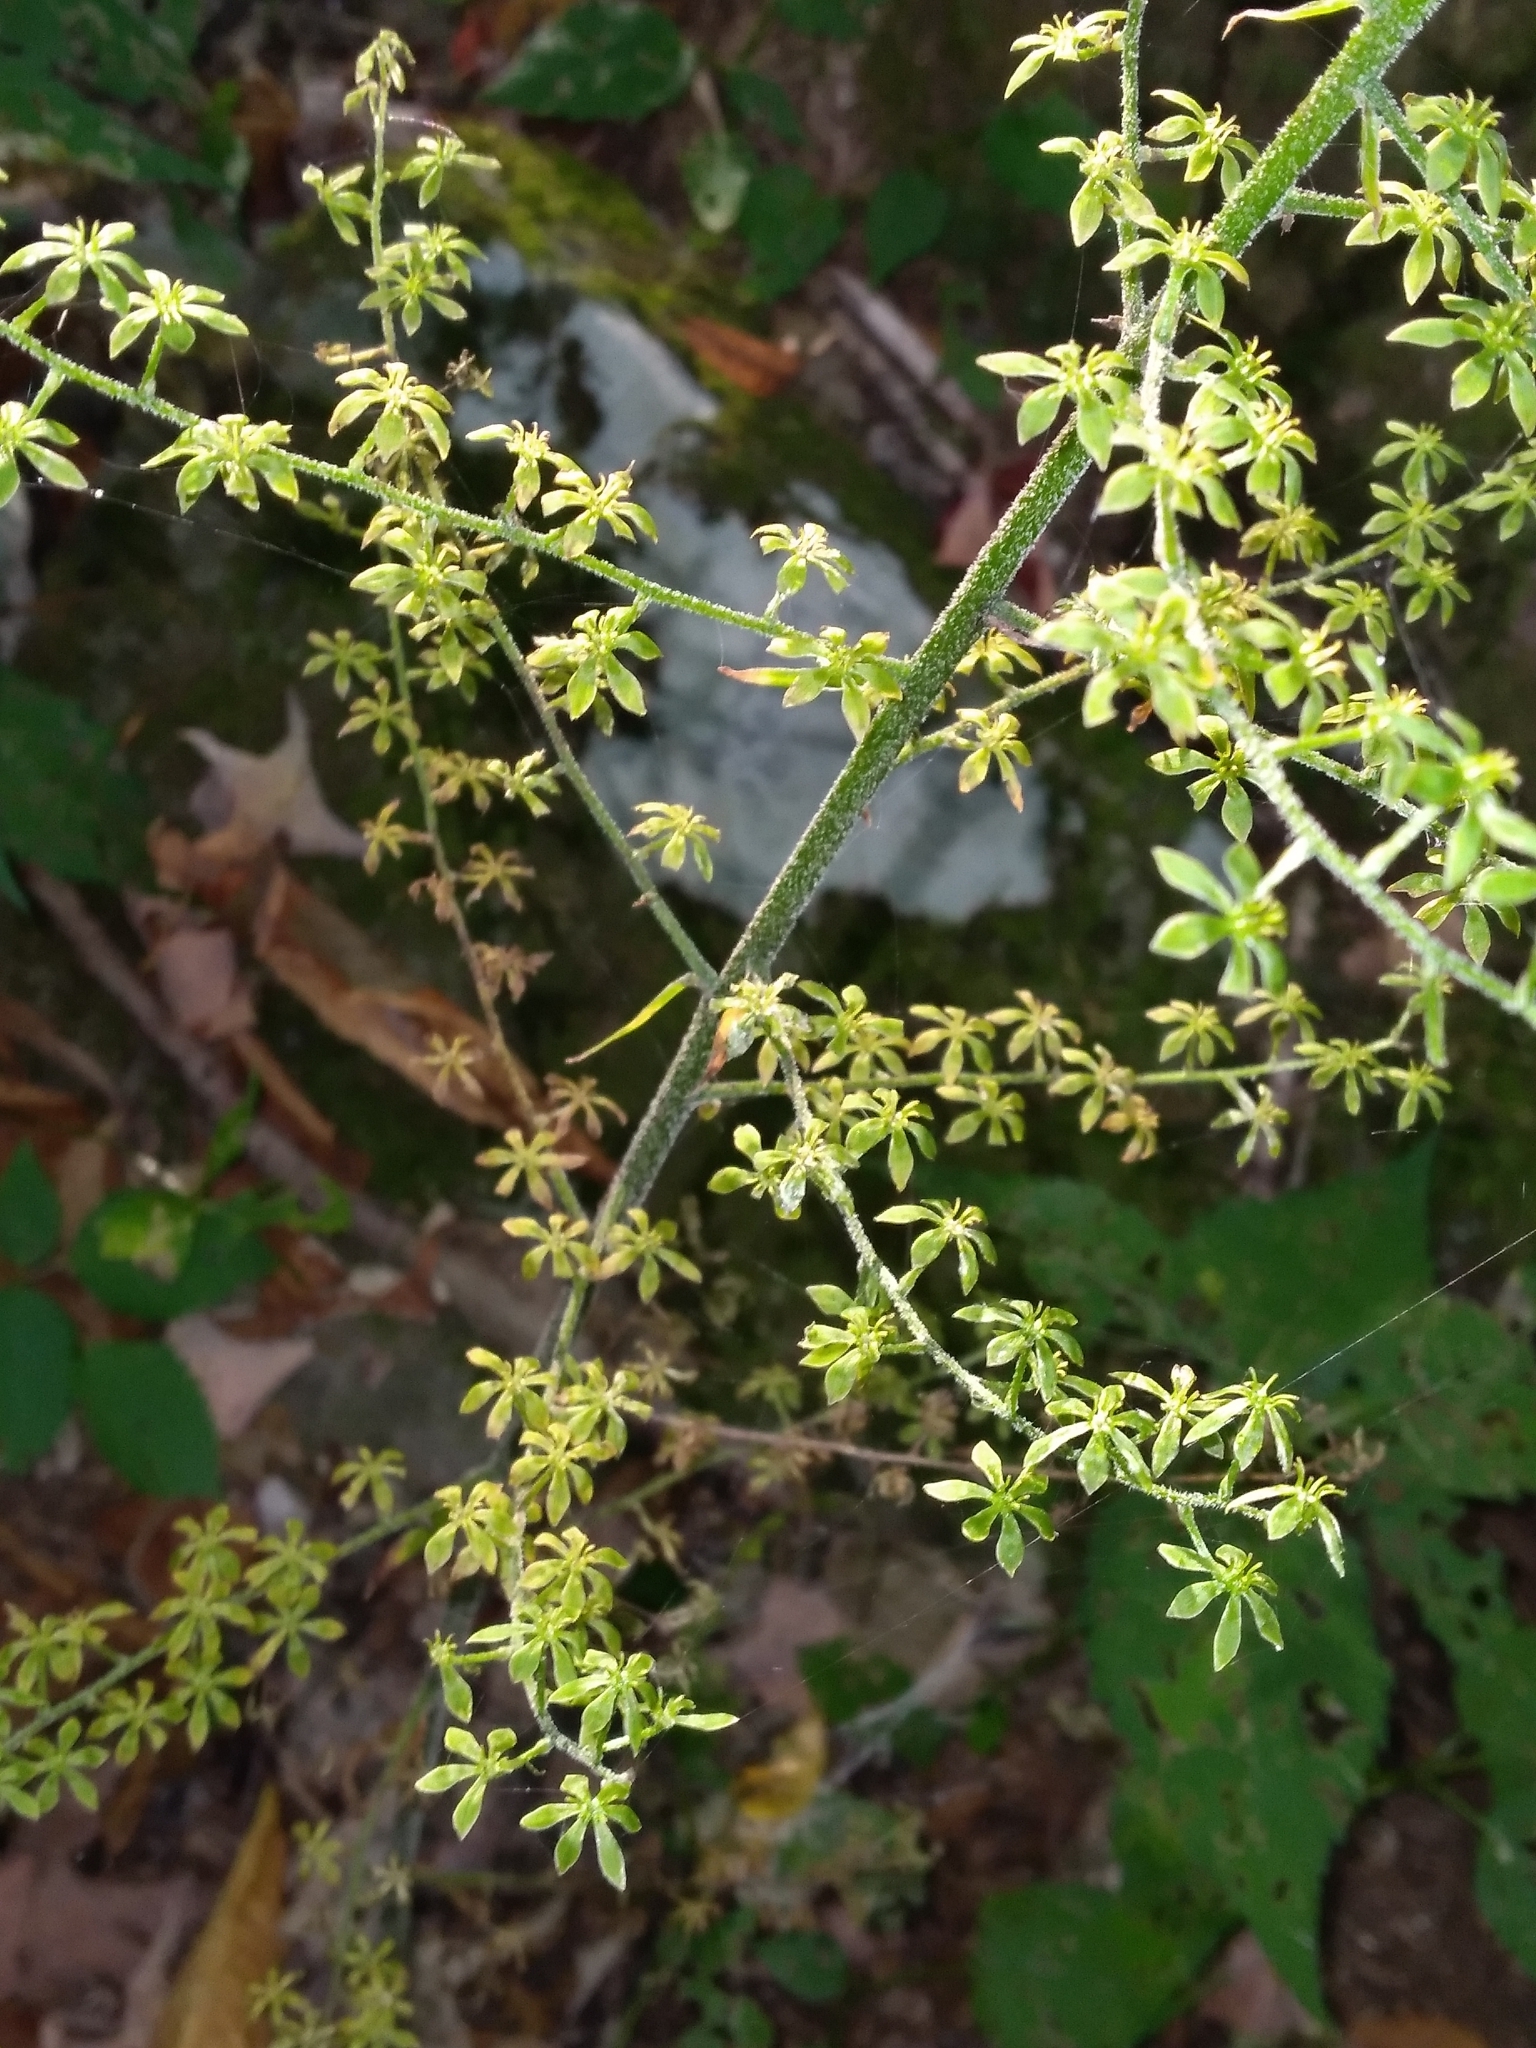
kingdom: Plantae
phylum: Tracheophyta
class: Liliopsida
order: Liliales
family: Melanthiaceae
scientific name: Melanthiaceae
